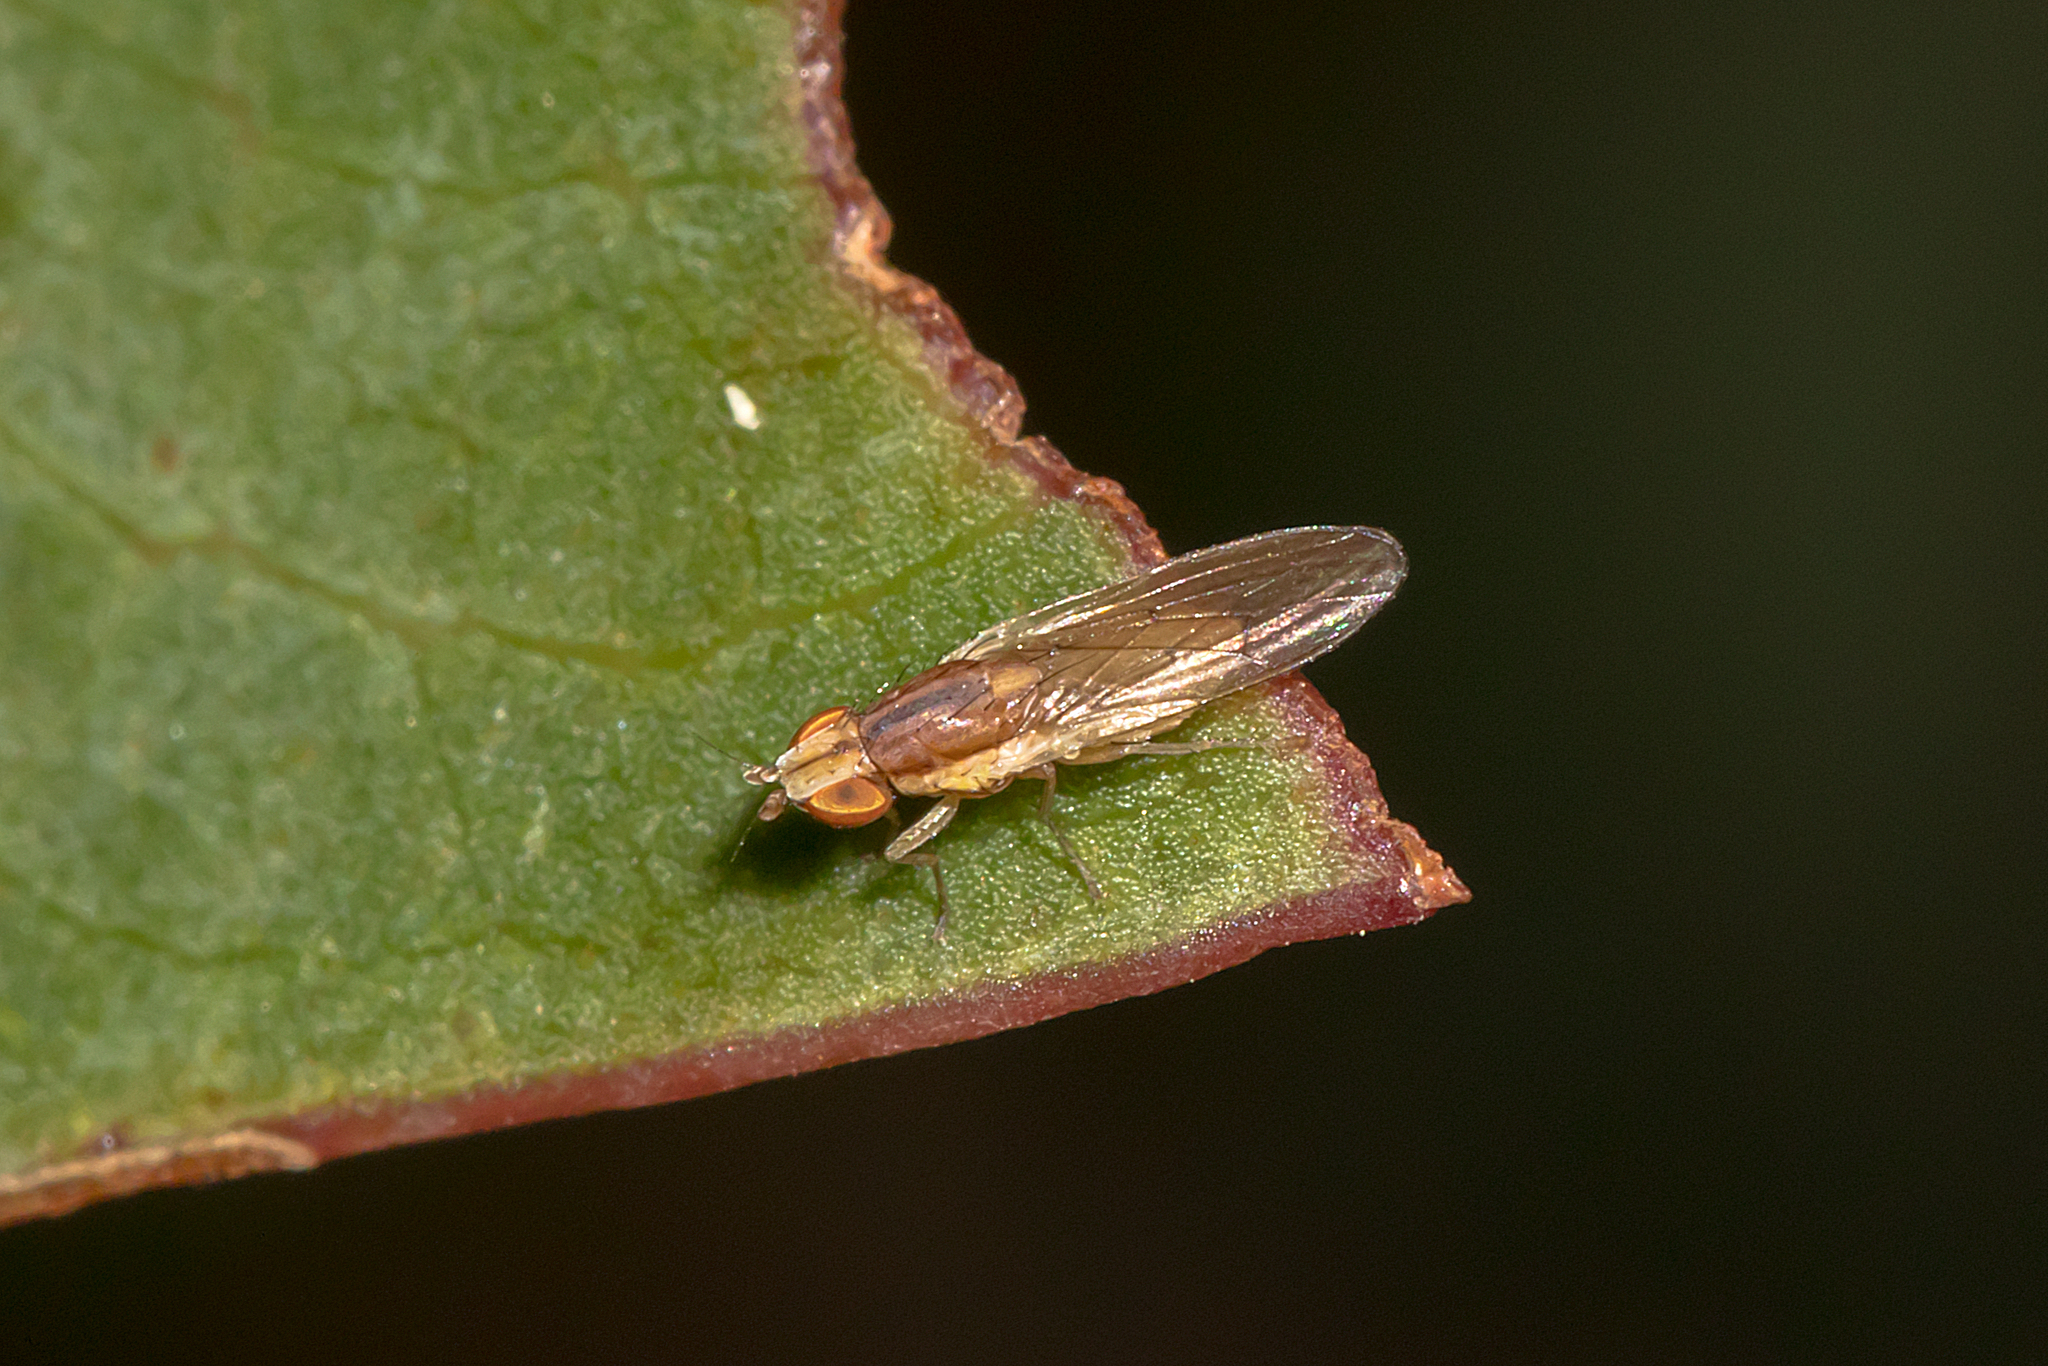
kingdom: Animalia
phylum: Arthropoda
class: Insecta
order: Diptera
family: Lauxaniidae
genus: Trigonometopsis
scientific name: Trigonometopsis binotata
